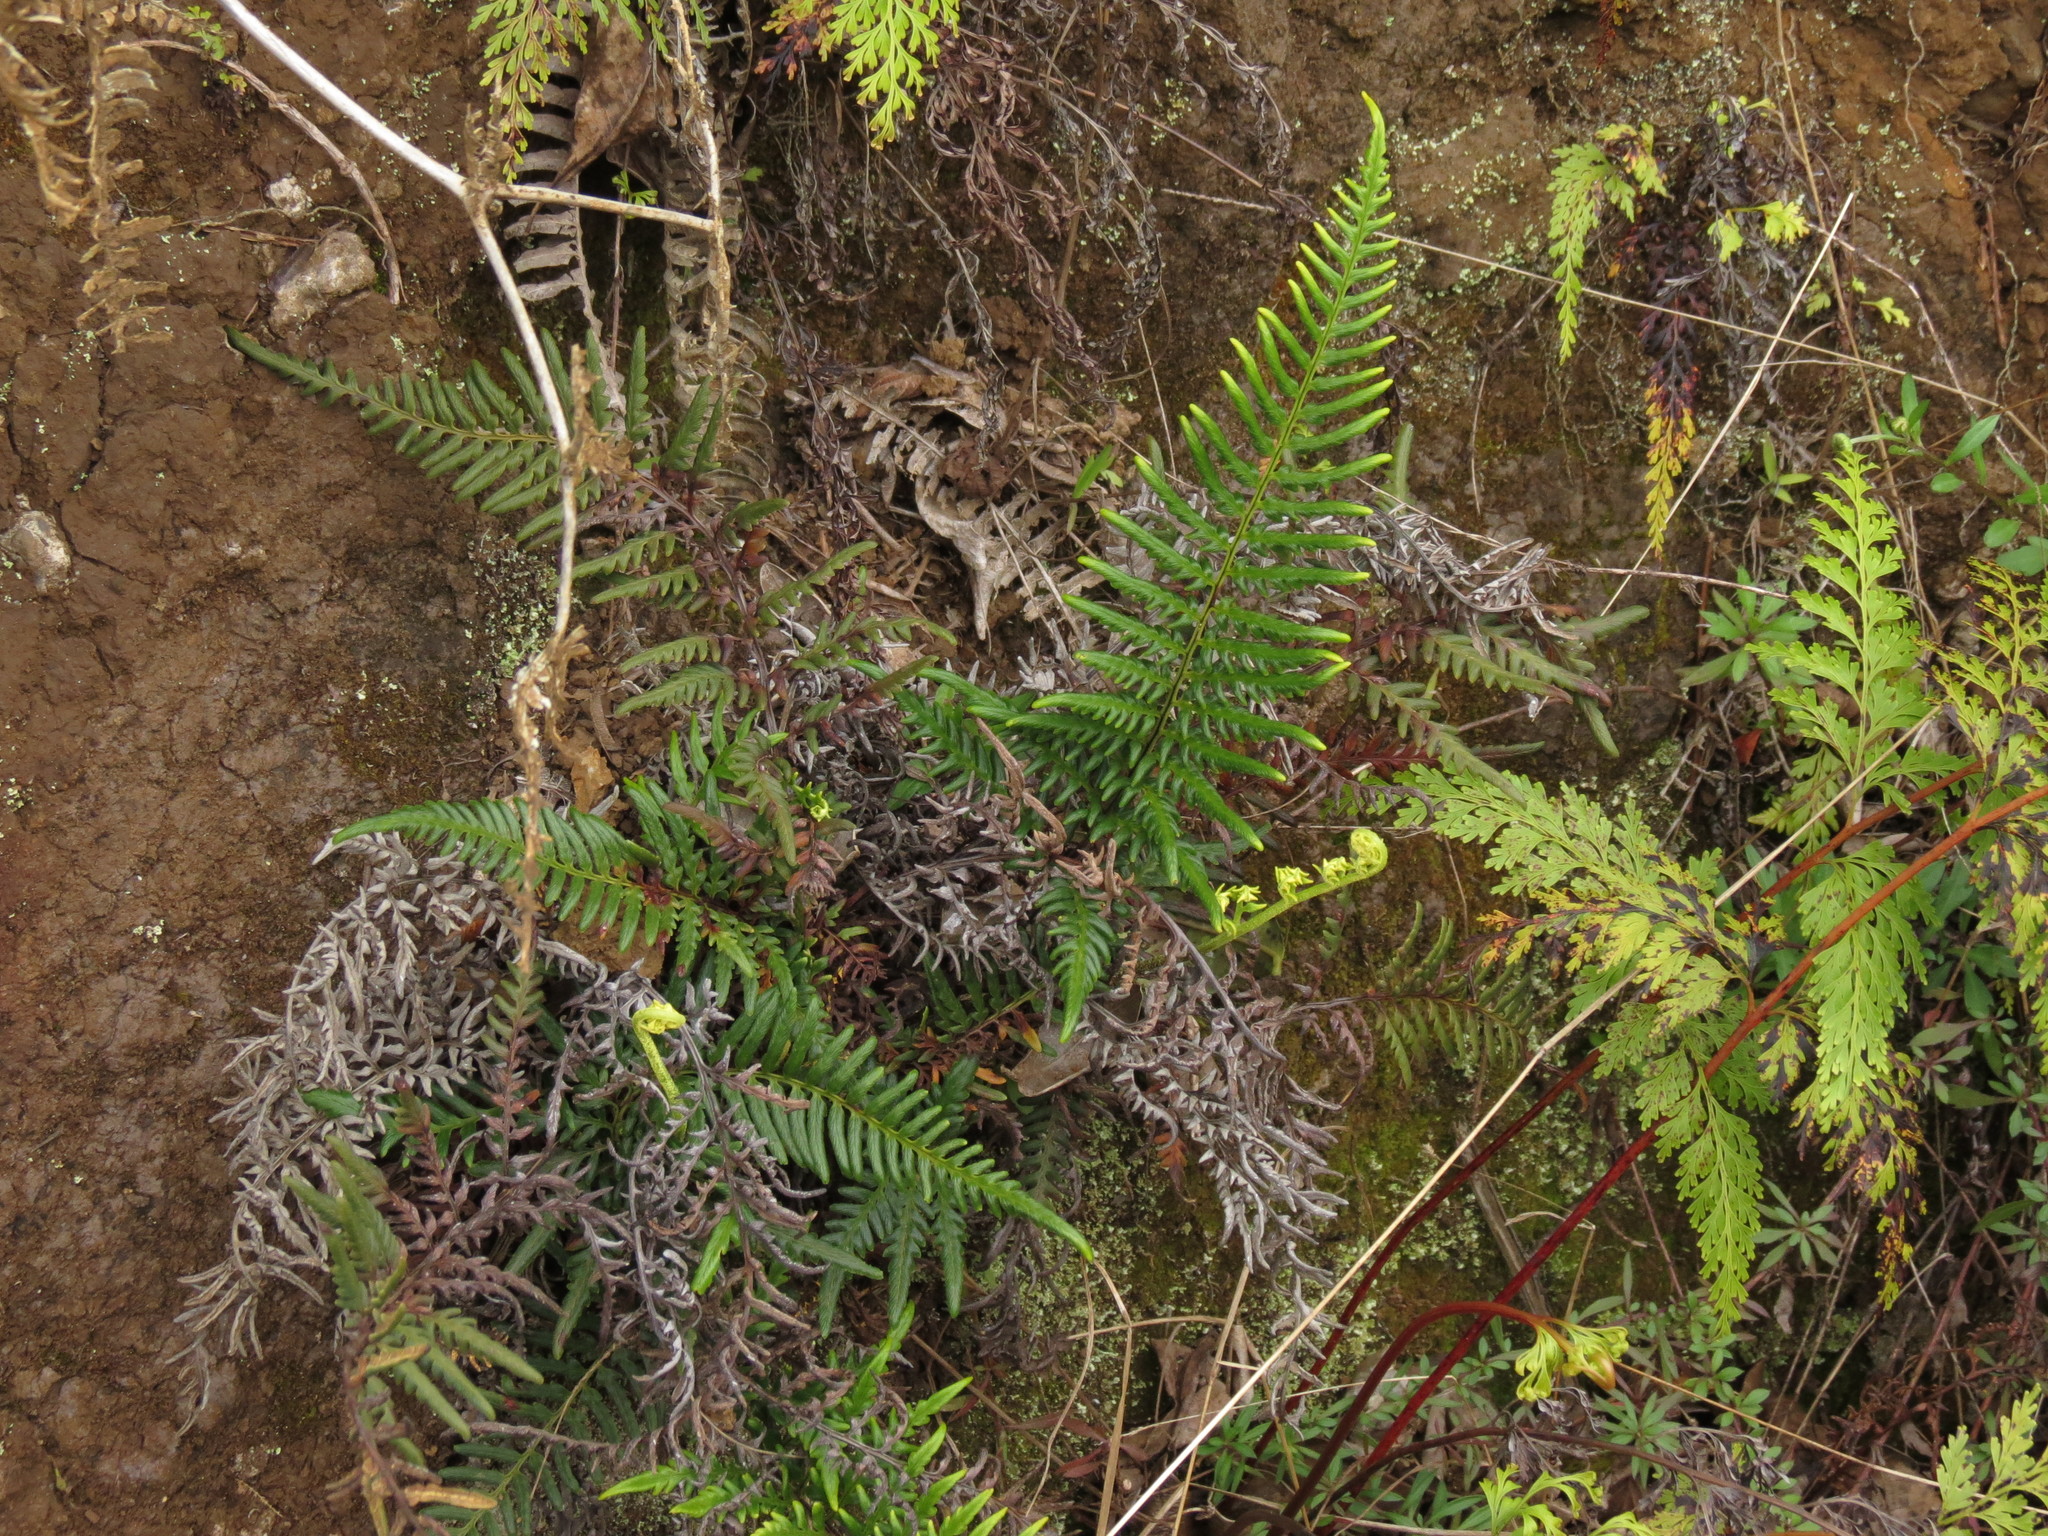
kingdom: Plantae
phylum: Tracheophyta
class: Polypodiopsida
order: Polypodiales
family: Pteridaceae
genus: Pityrogramma
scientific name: Pityrogramma austroamericana
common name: Leatherleaf goldback fern
